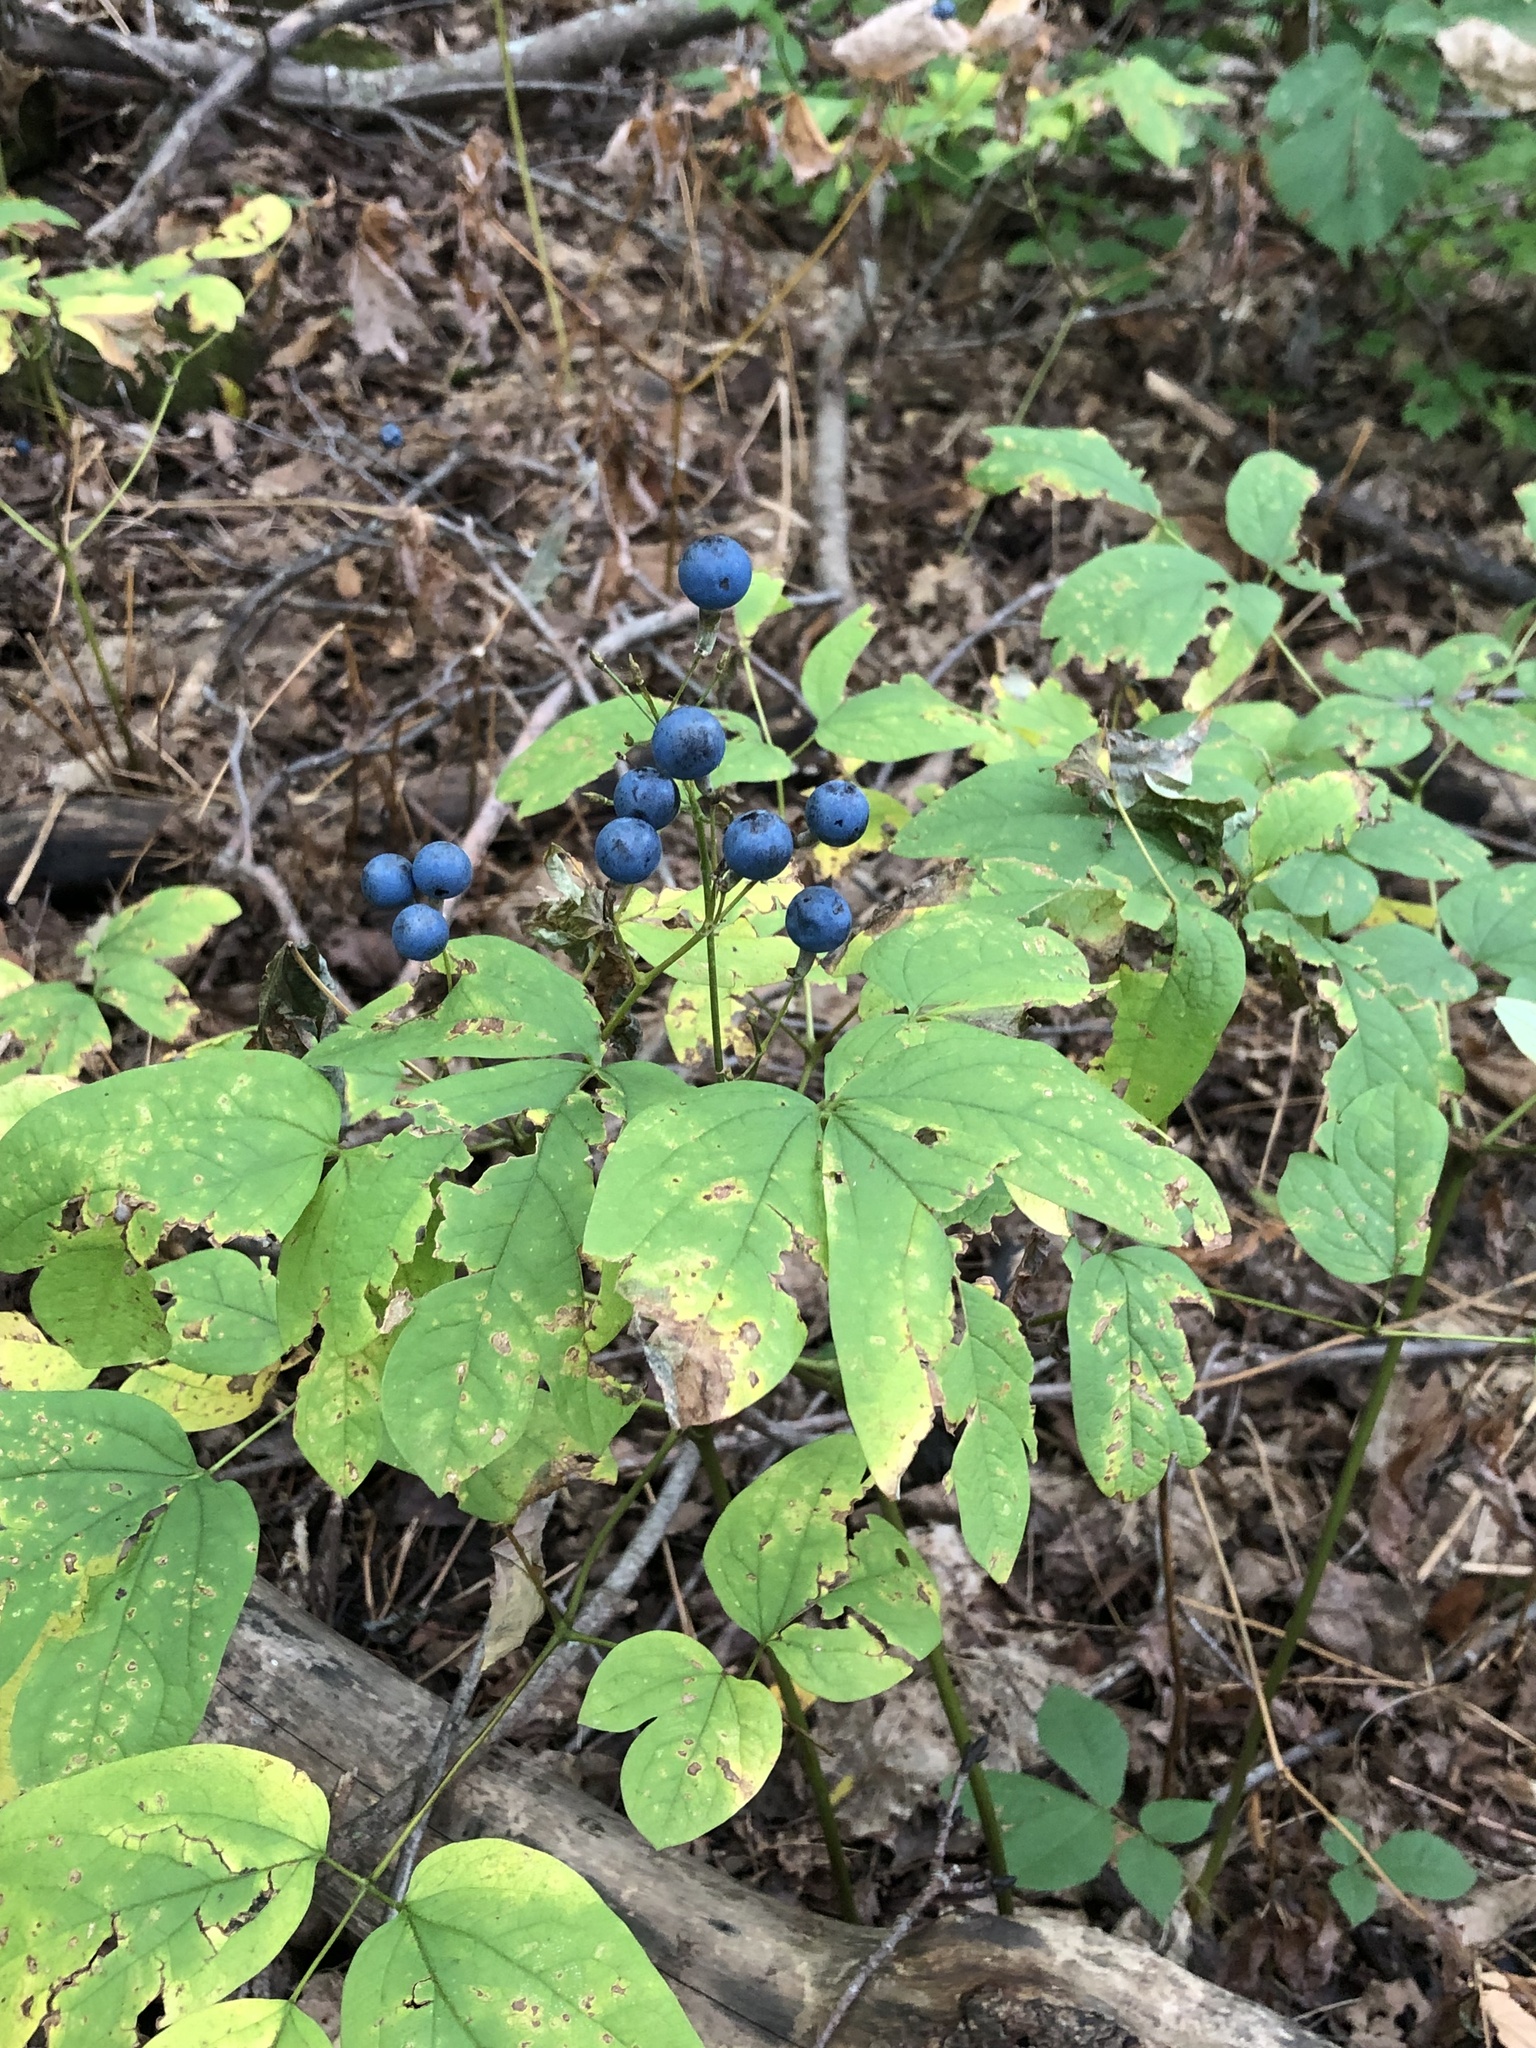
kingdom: Plantae
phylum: Tracheophyta
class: Magnoliopsida
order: Ranunculales
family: Berberidaceae
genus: Caulophyllum
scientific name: Caulophyllum thalictroides
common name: Blue cohosh
